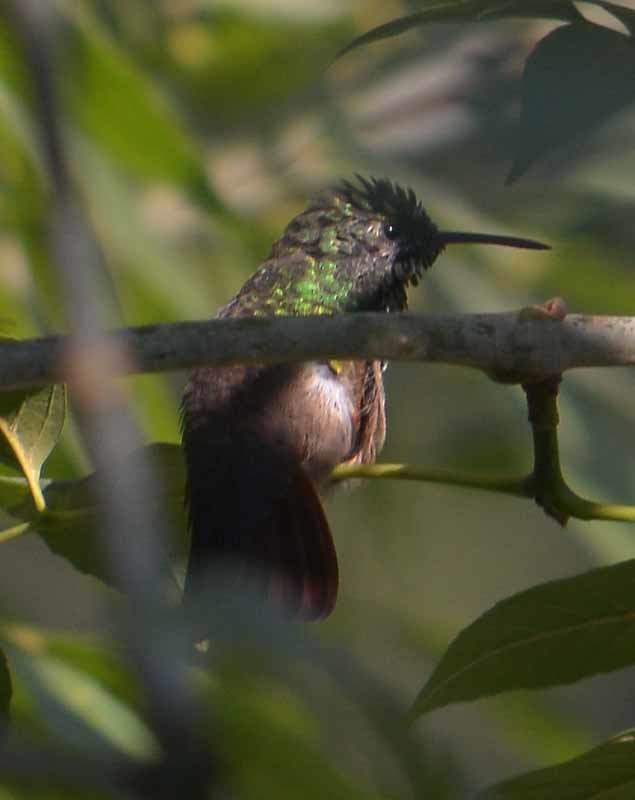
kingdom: Animalia
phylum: Chordata
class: Aves
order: Apodiformes
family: Trochilidae
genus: Saucerottia
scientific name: Saucerottia beryllina
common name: Berylline hummingbird
